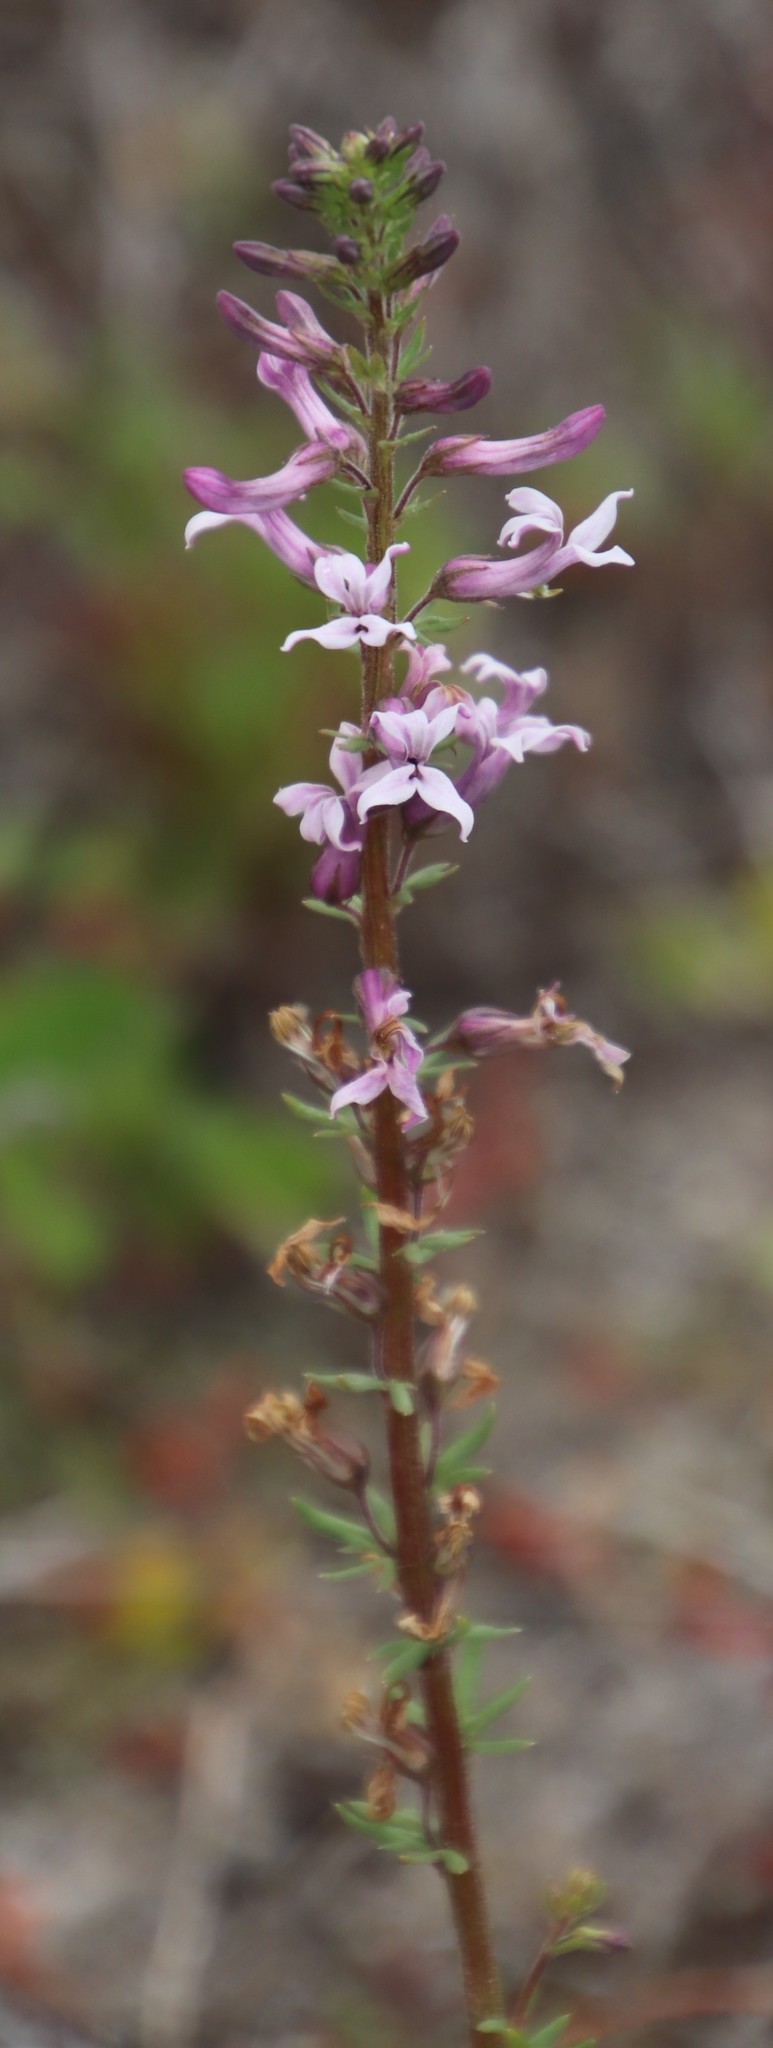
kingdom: Plantae
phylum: Tracheophyta
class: Magnoliopsida
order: Asterales
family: Campanulaceae
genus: Cyphia
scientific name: Cyphia bulbosa
